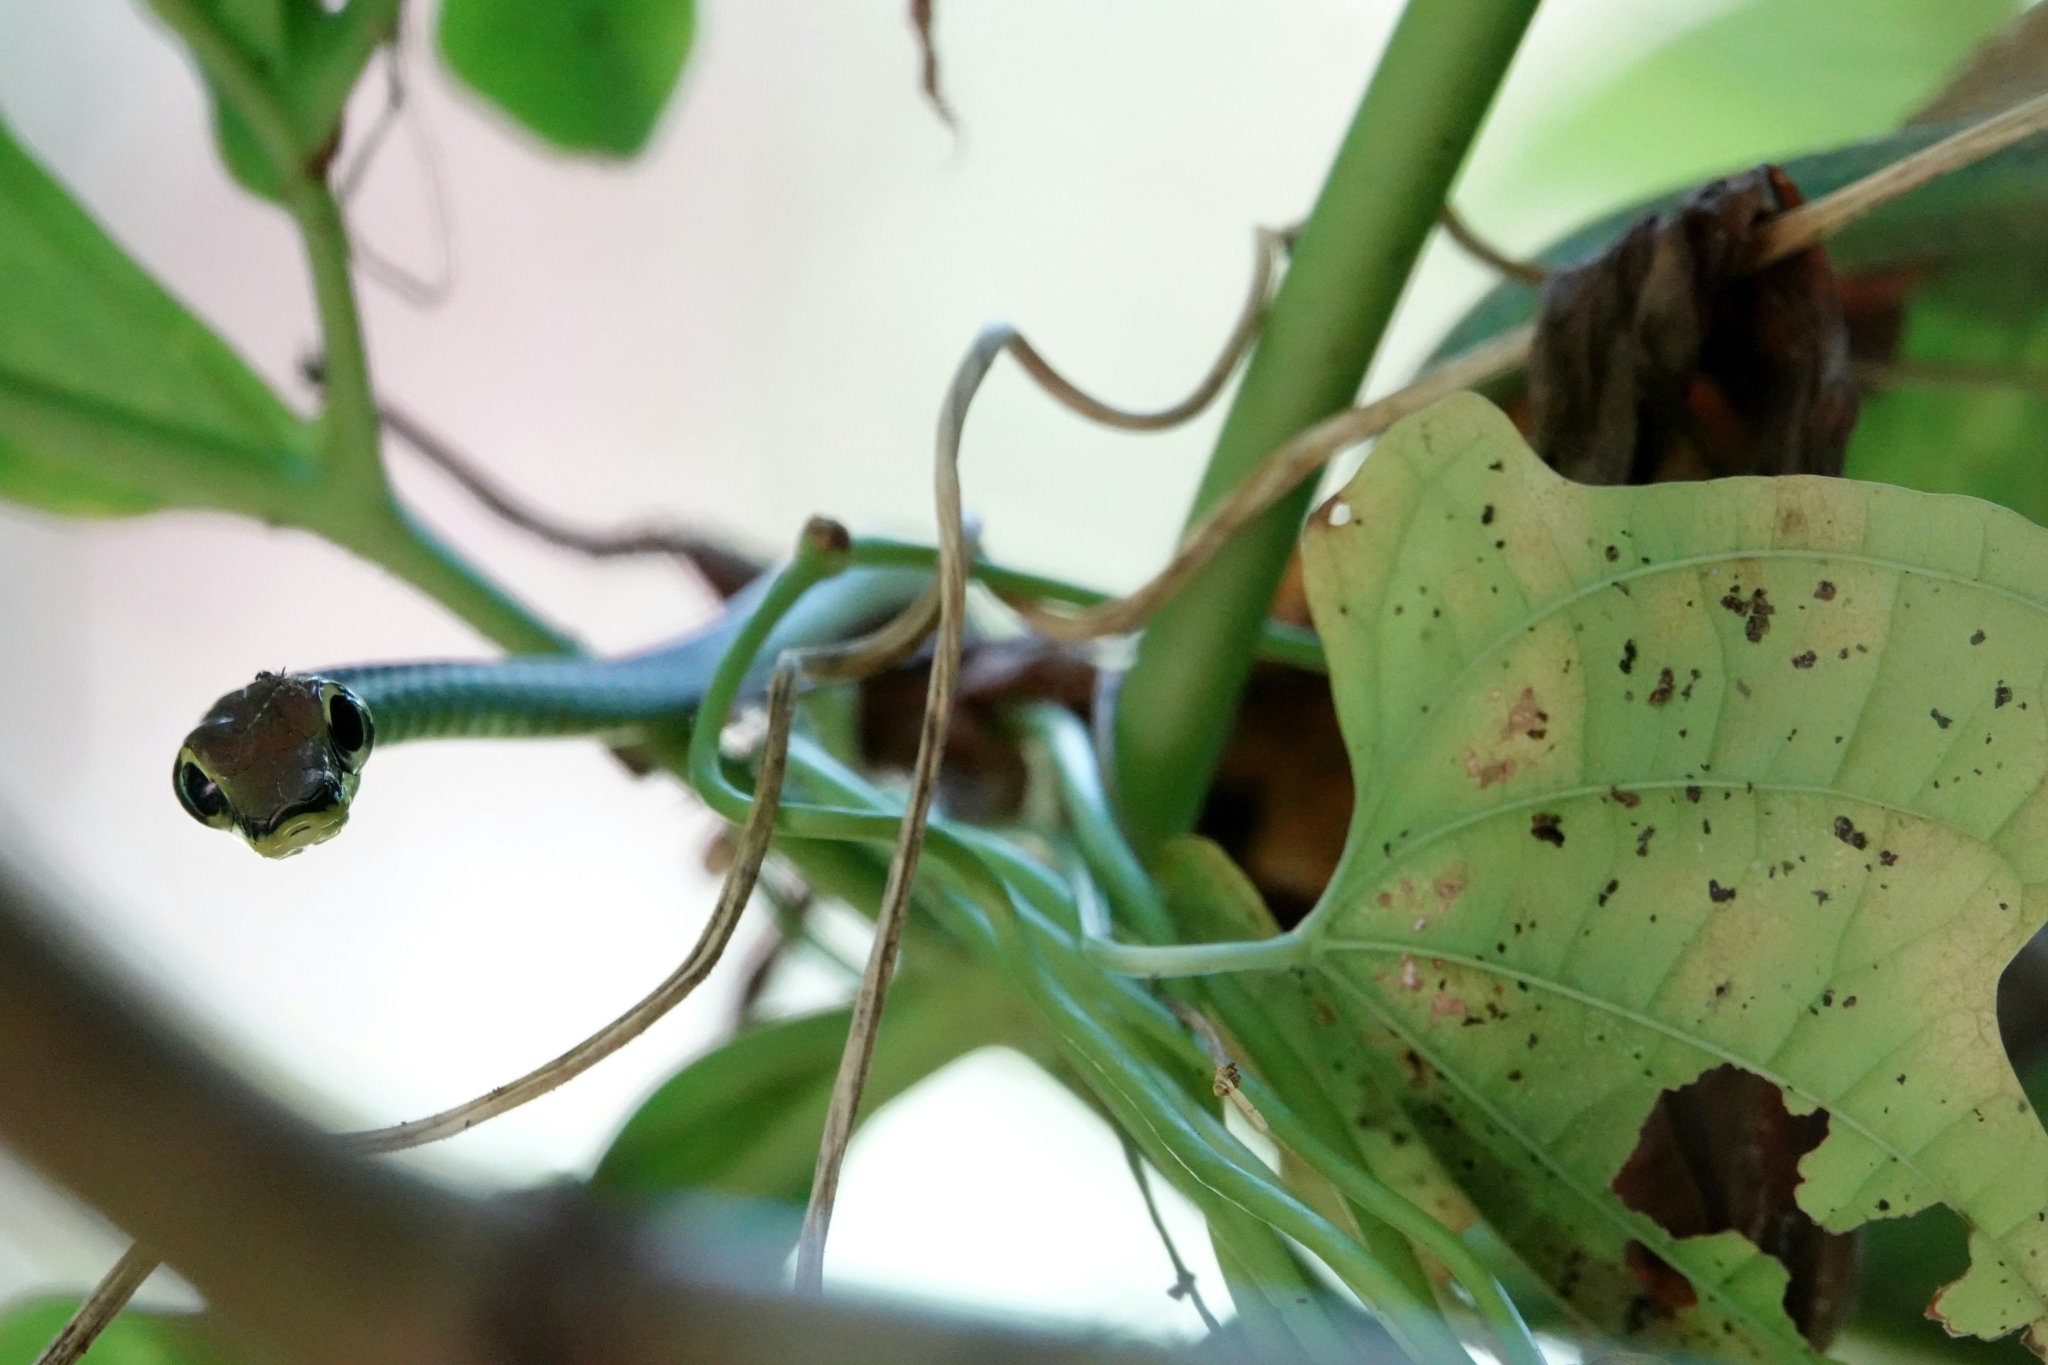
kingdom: Animalia
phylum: Chordata
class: Squamata
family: Colubridae
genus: Dendrelaphis
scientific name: Dendrelaphis formosus
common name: Elegant bronzeback
